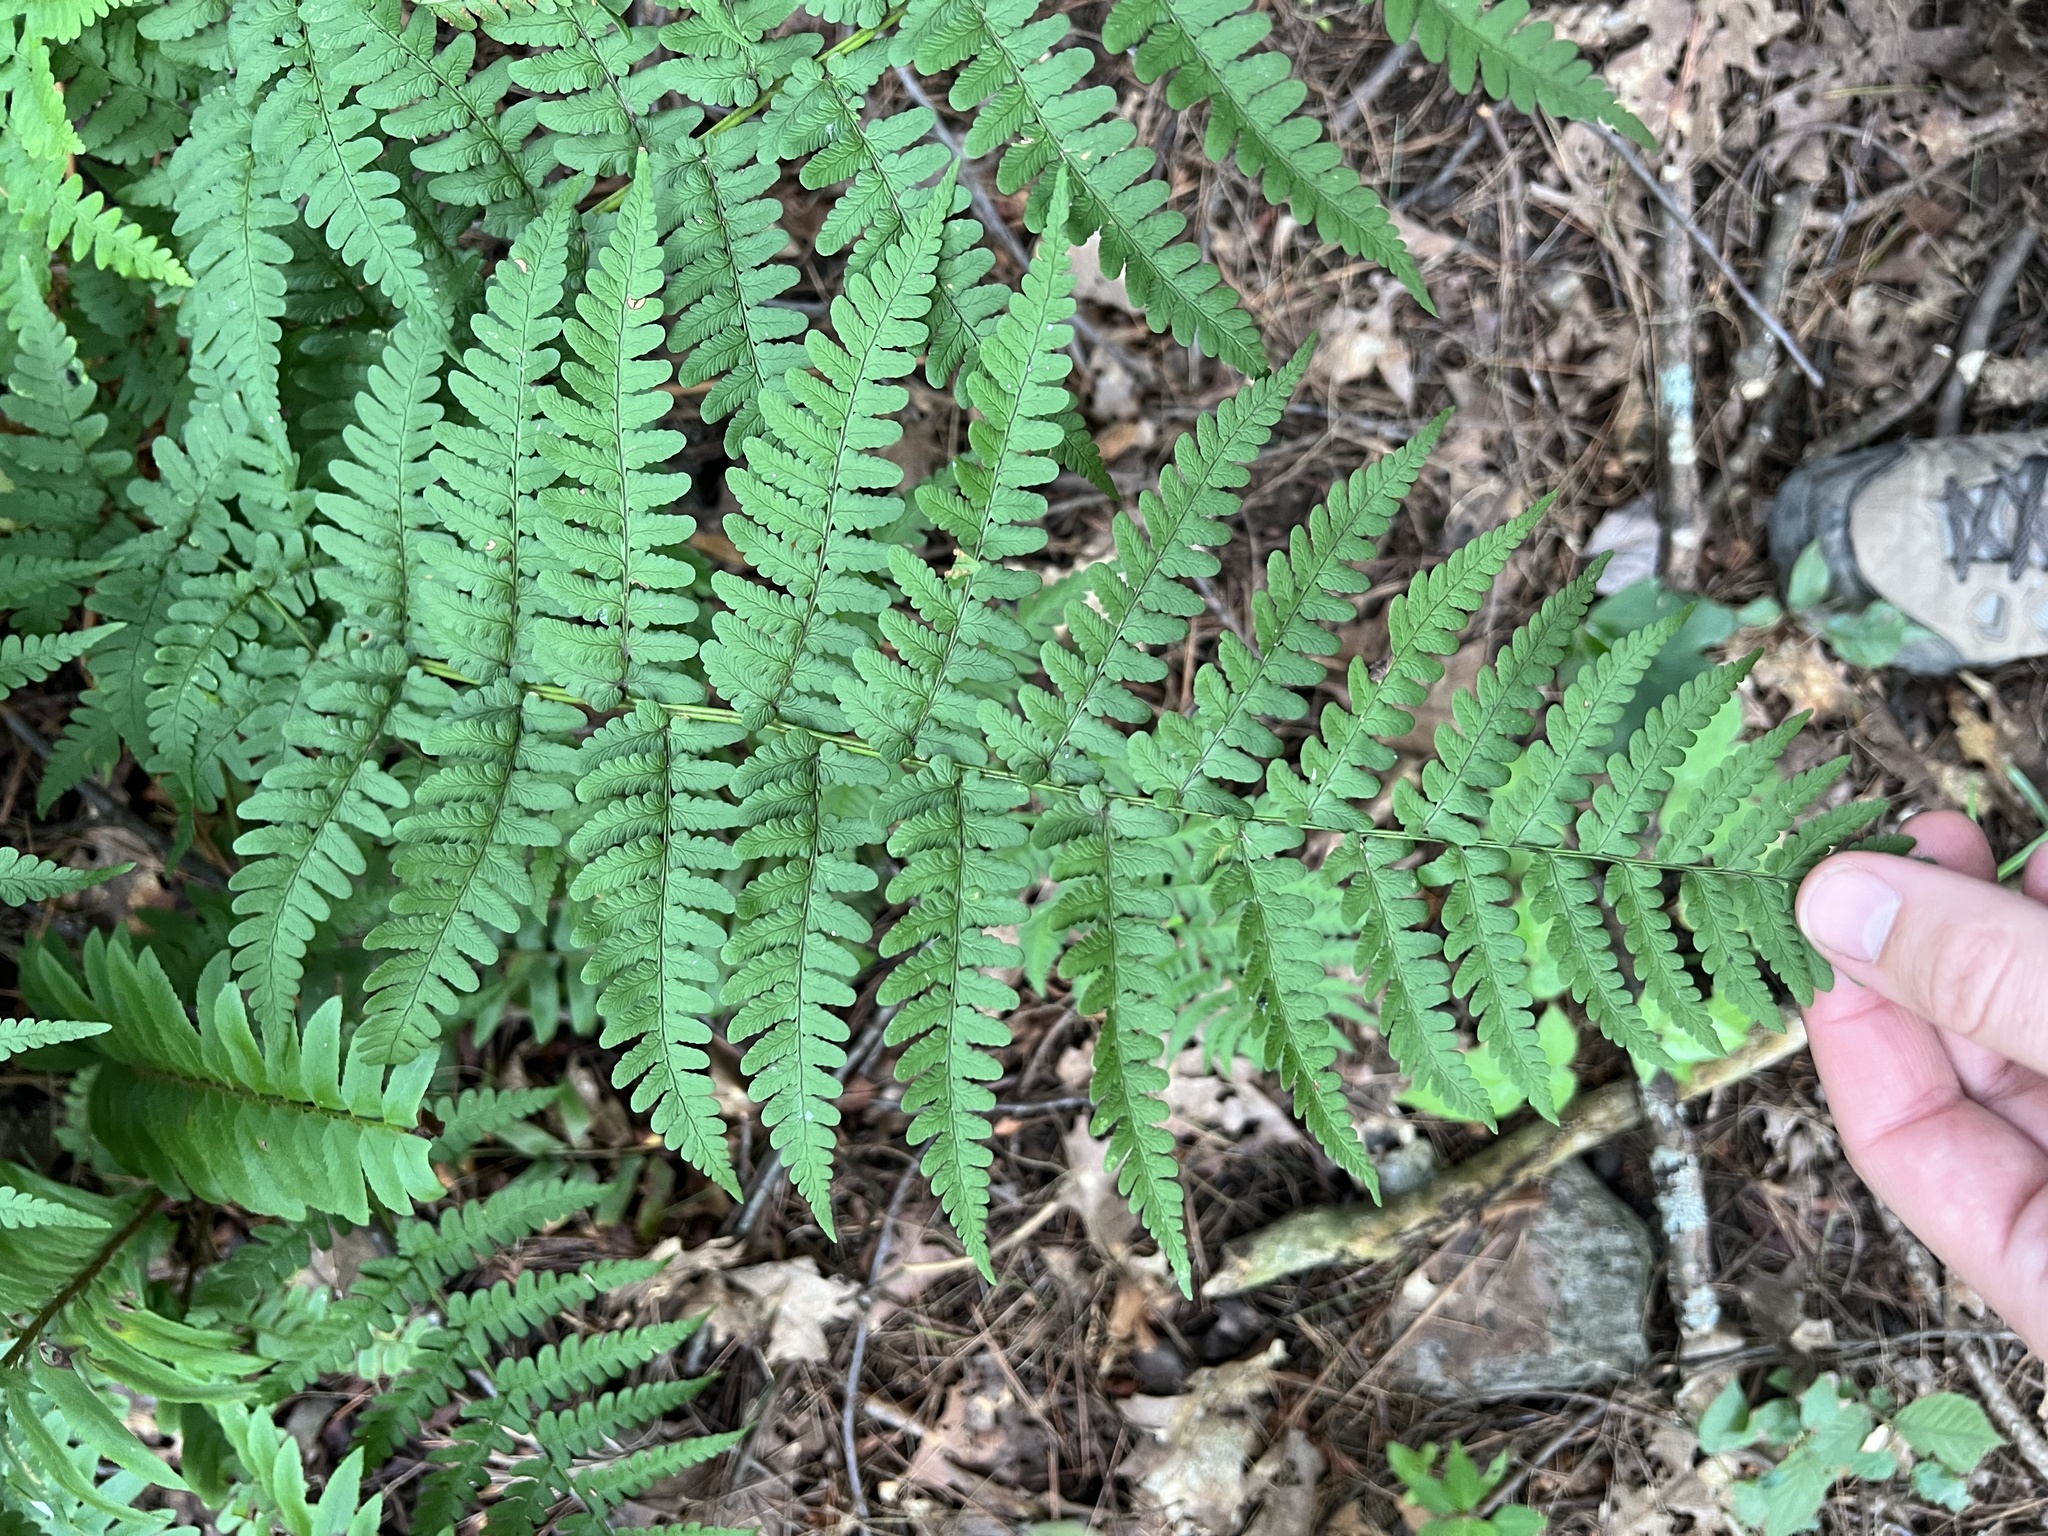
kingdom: Plantae
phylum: Tracheophyta
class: Polypodiopsida
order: Polypodiales
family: Dryopteridaceae
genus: Dryopteris
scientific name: Dryopteris marginalis
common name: Marginal wood fern
